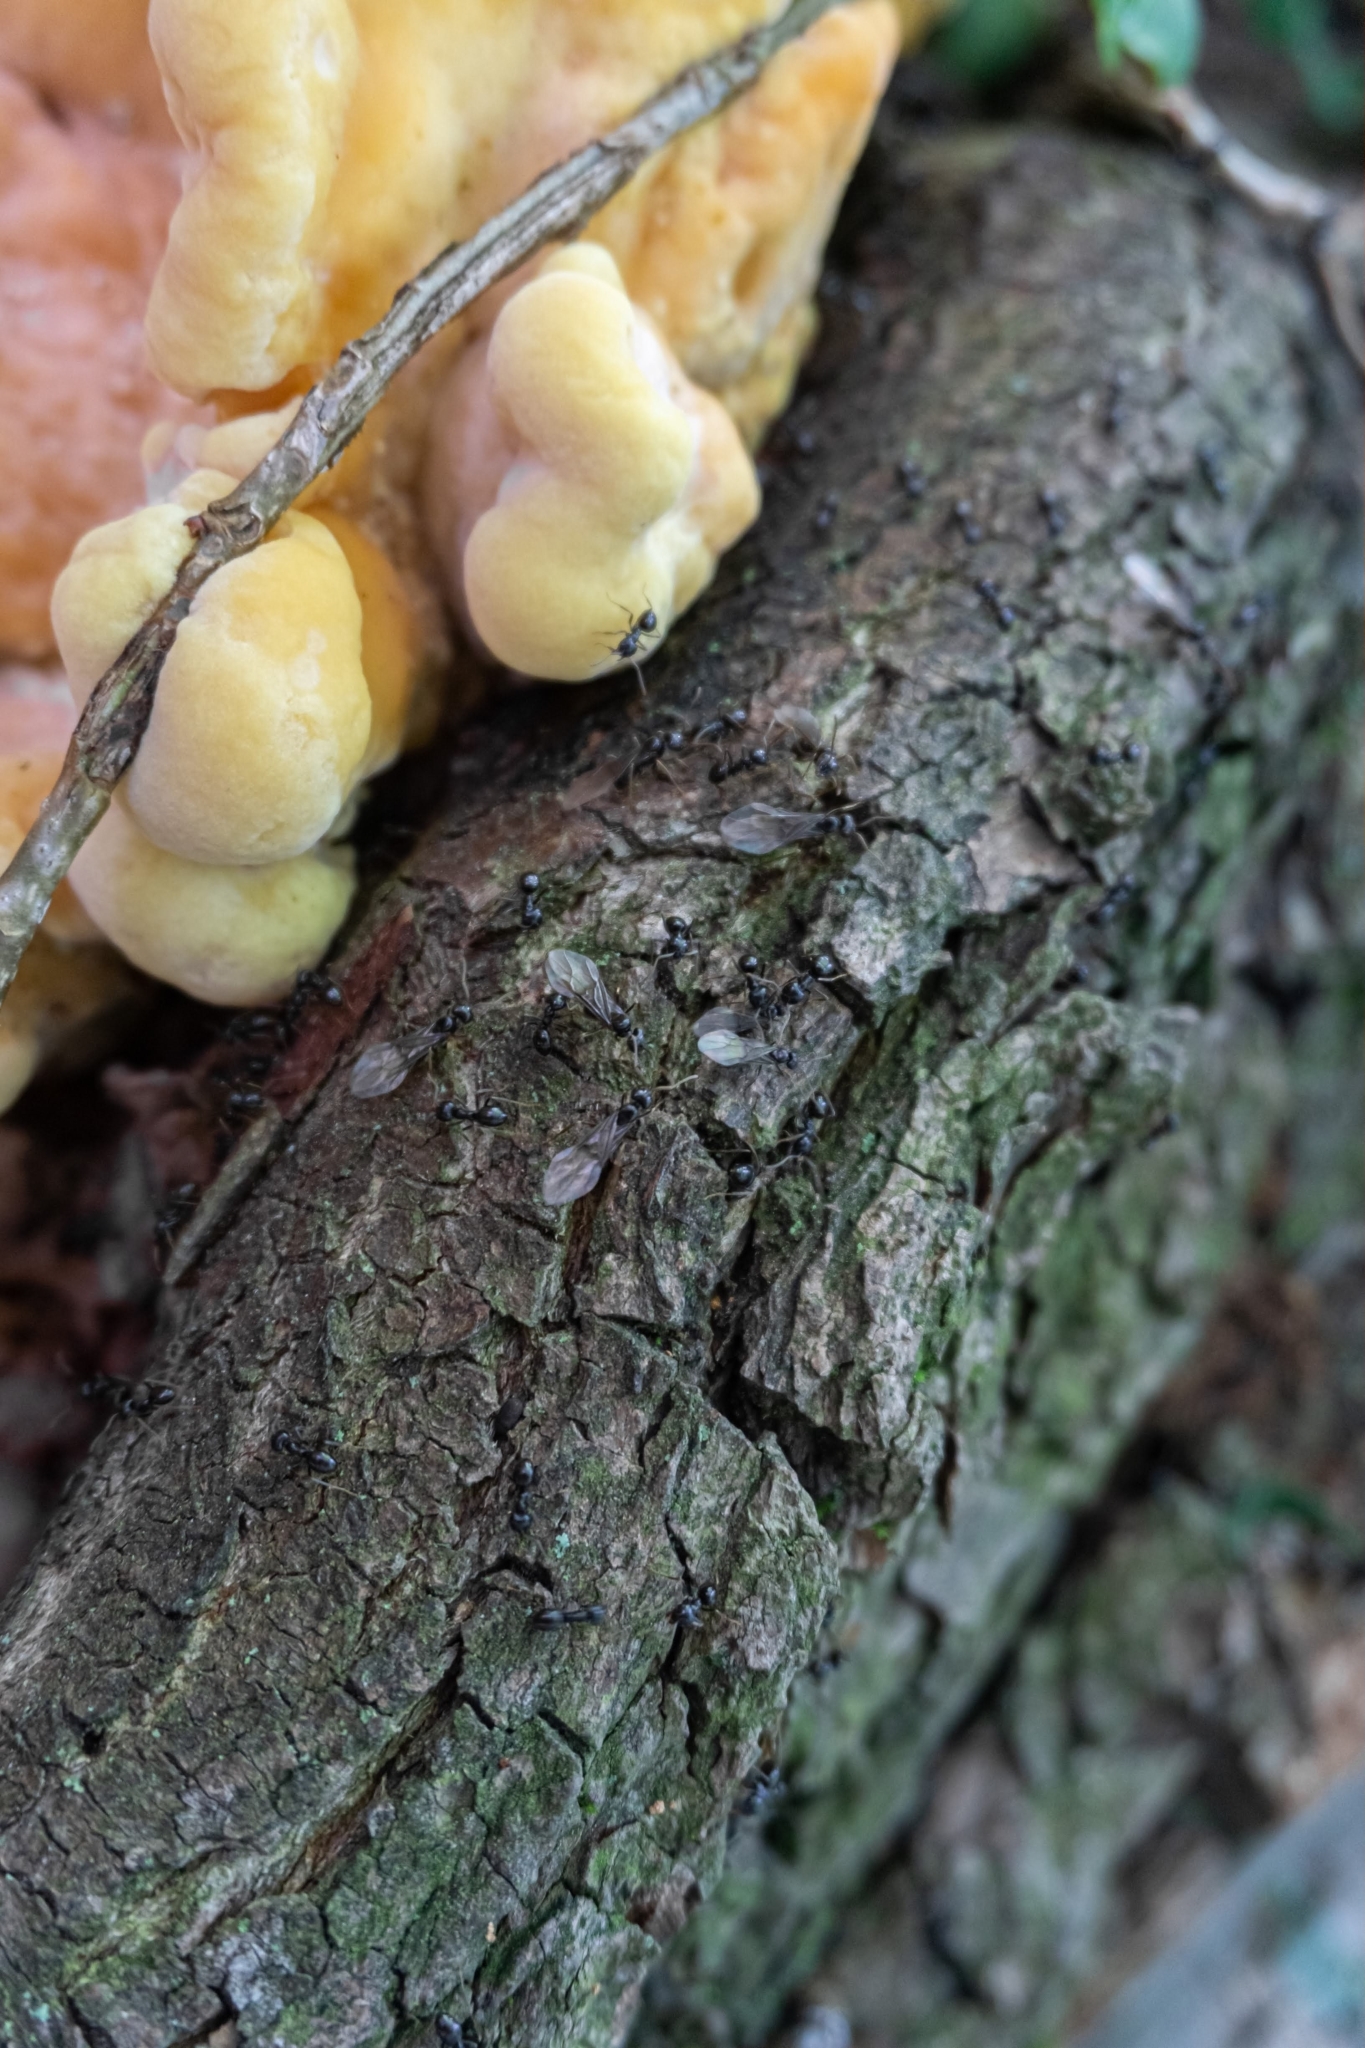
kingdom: Animalia
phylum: Arthropoda
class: Insecta
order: Hymenoptera
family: Formicidae
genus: Lasius
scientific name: Lasius fuliginosus
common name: Jet ant
